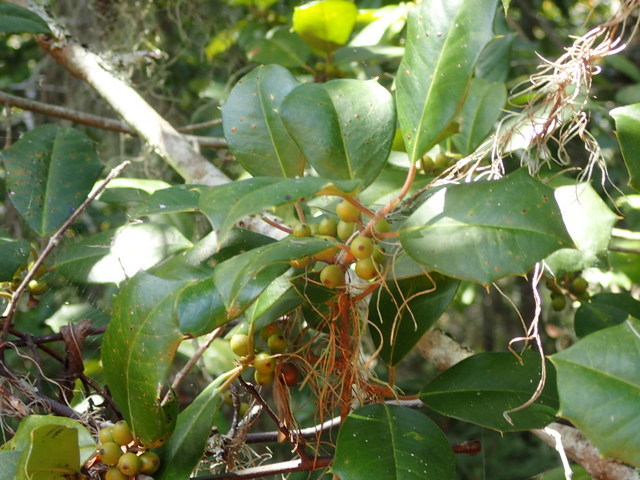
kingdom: Plantae
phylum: Tracheophyta
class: Magnoliopsida
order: Aquifoliales
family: Aquifoliaceae
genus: Ilex
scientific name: Ilex opaca
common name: American holly
